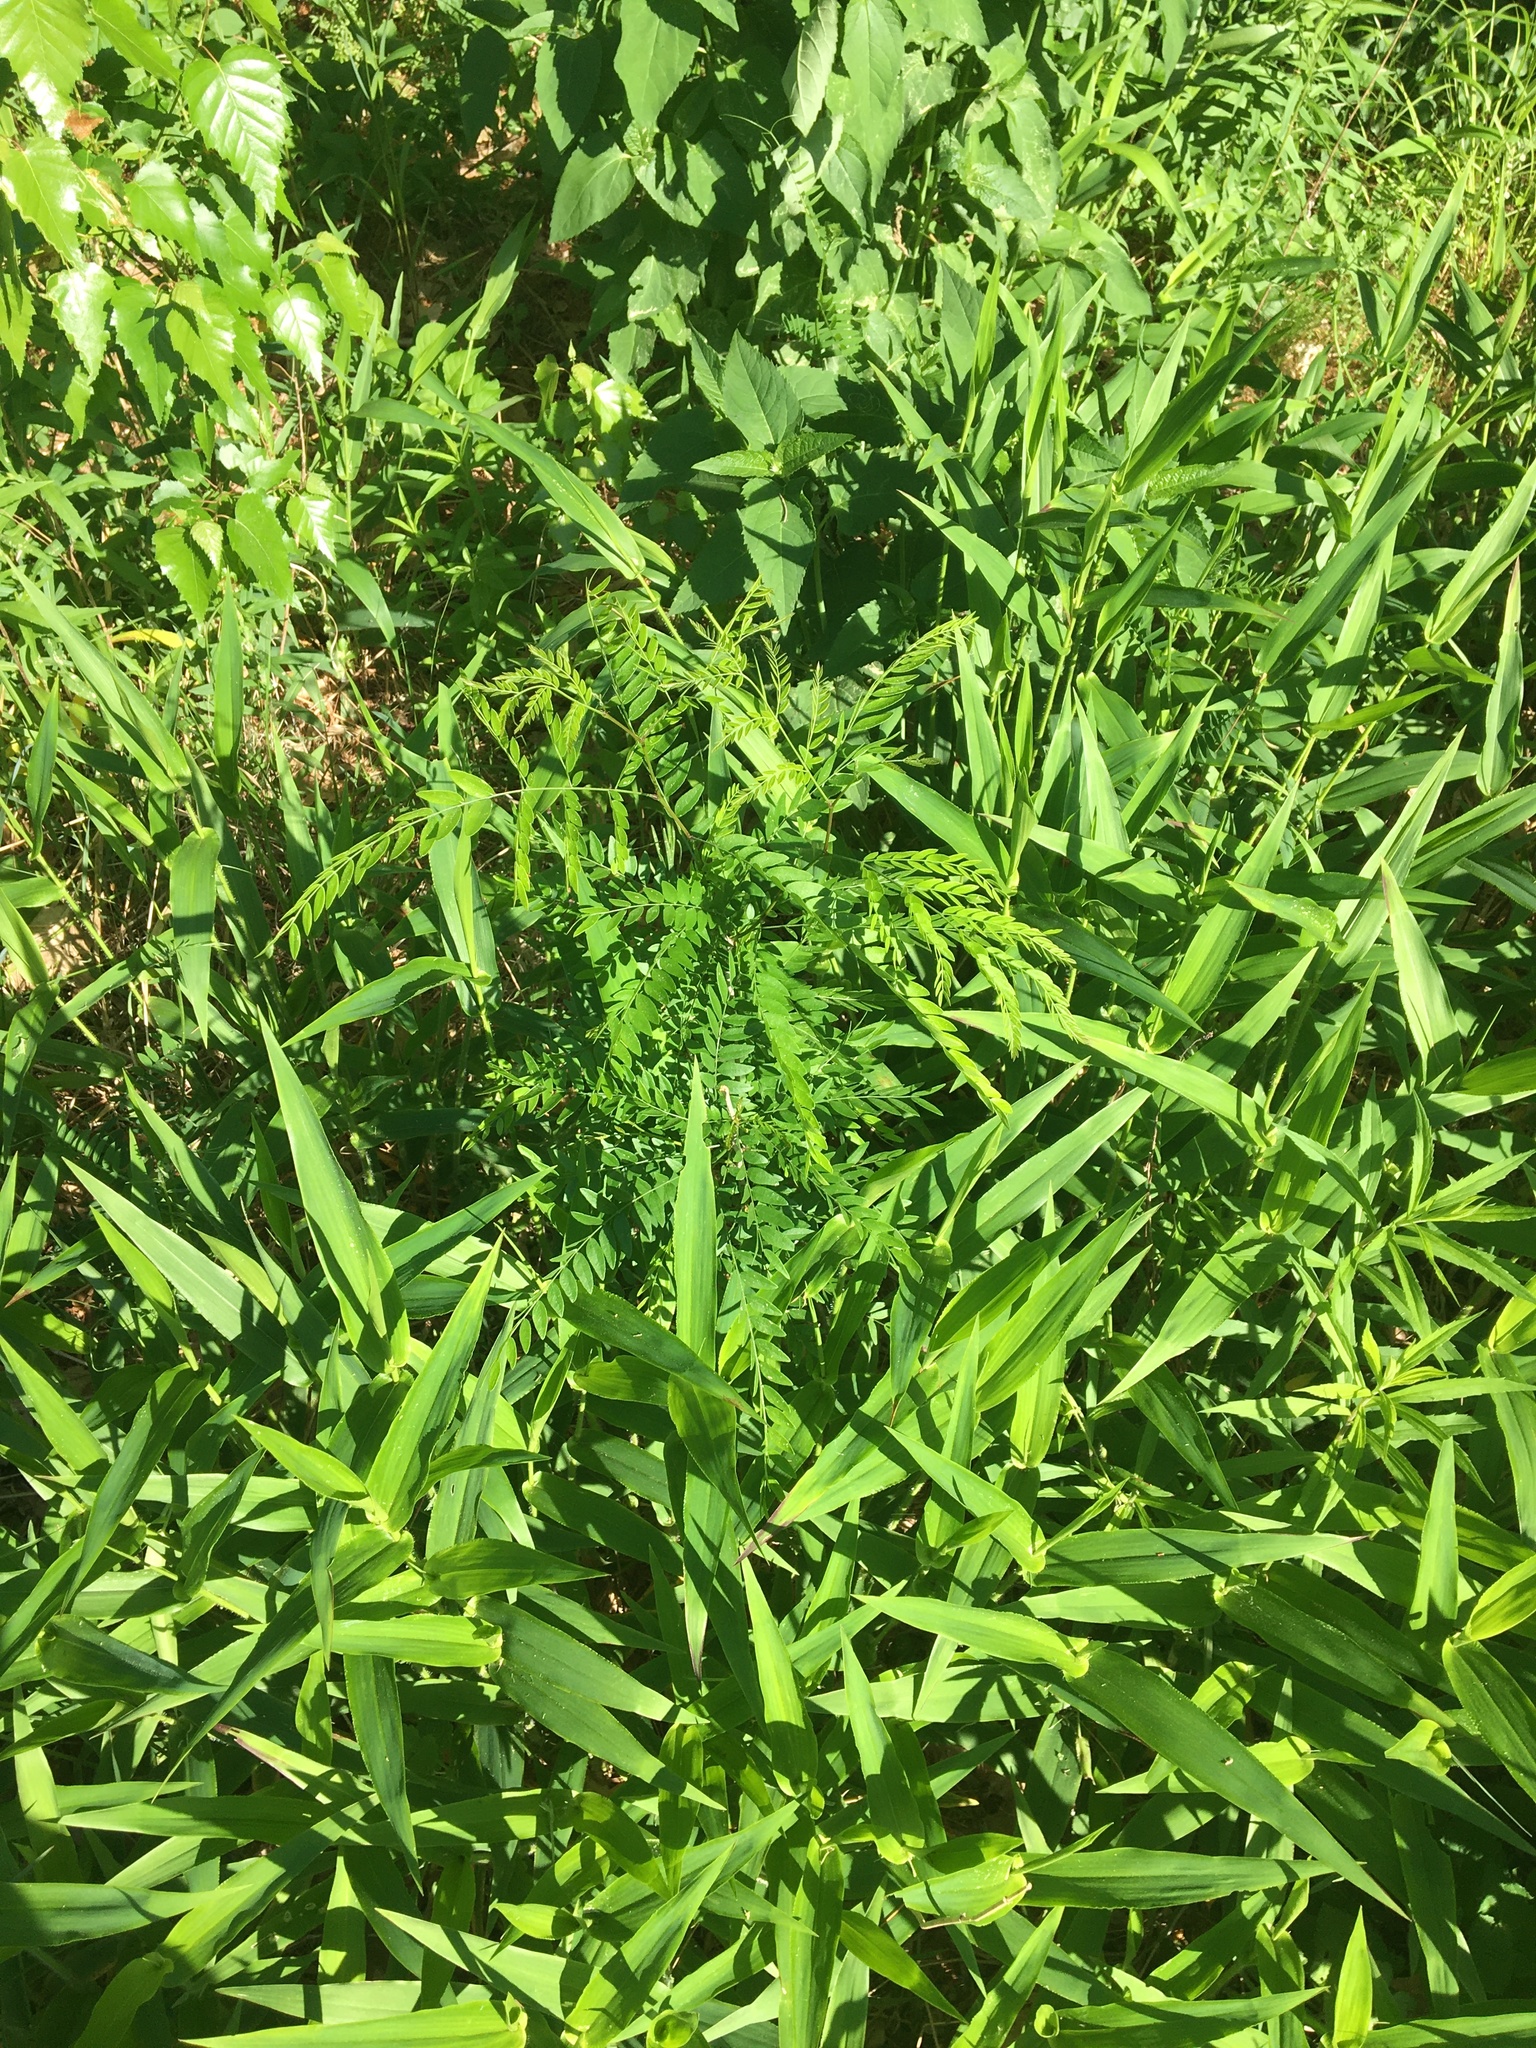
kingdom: Plantae
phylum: Tracheophyta
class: Magnoliopsida
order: Fabales
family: Fabaceae
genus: Gleditsia
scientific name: Gleditsia triacanthos
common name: Common honeylocust
